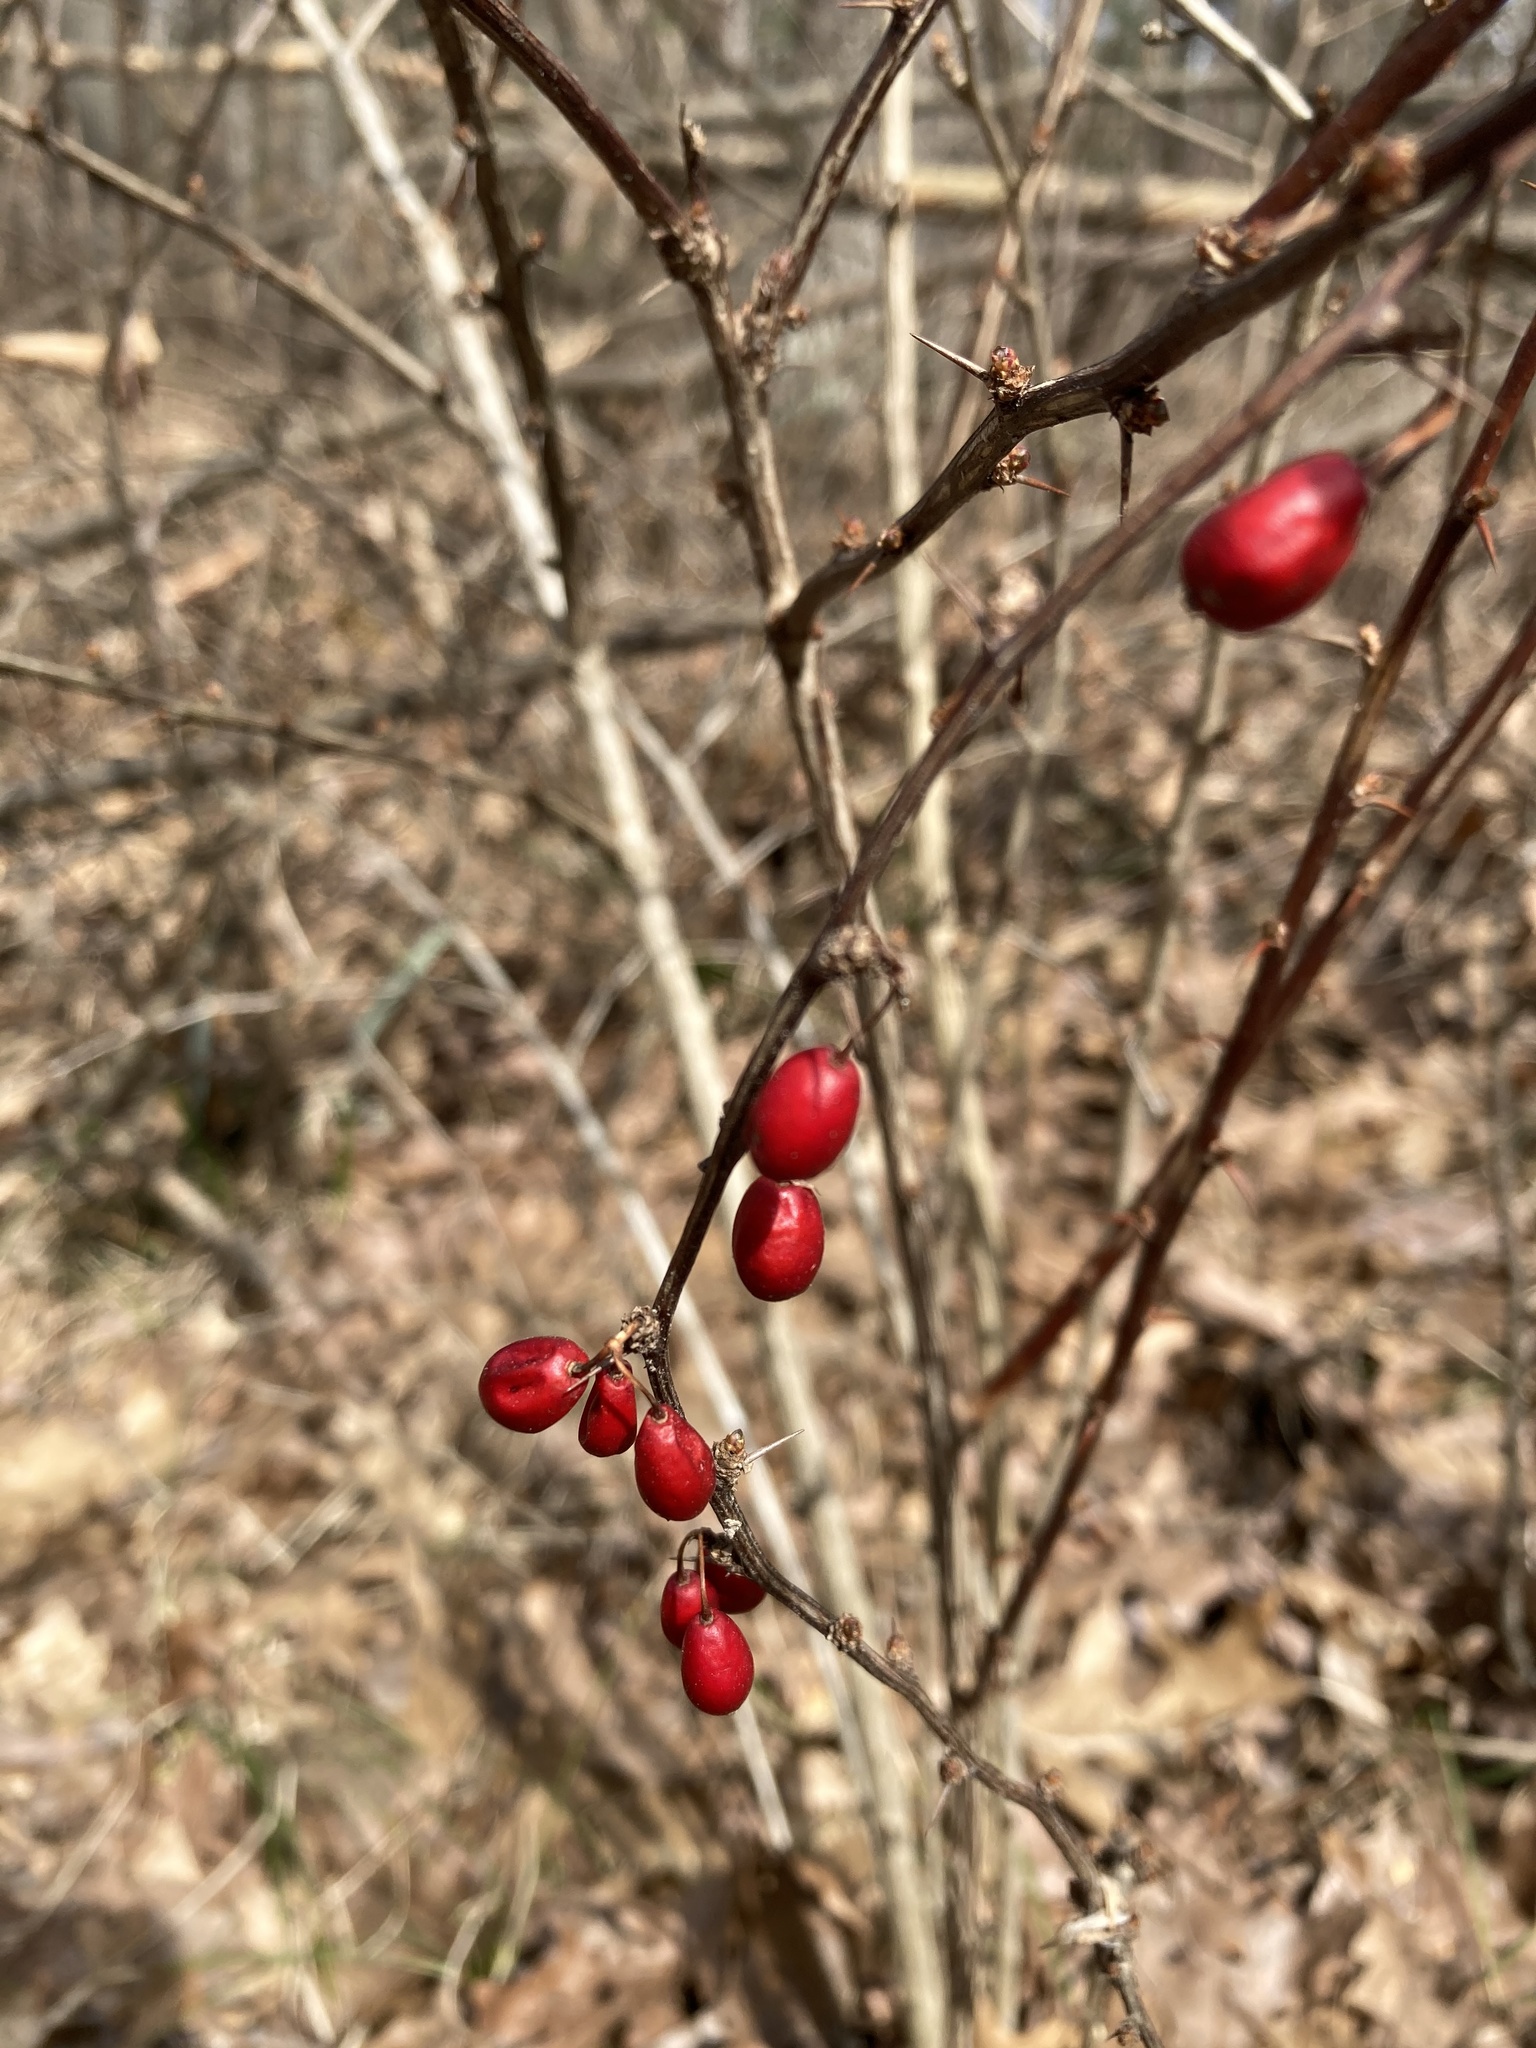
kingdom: Plantae
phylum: Tracheophyta
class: Magnoliopsida
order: Ranunculales
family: Berberidaceae
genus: Berberis
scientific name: Berberis thunbergii
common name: Japanese barberry
